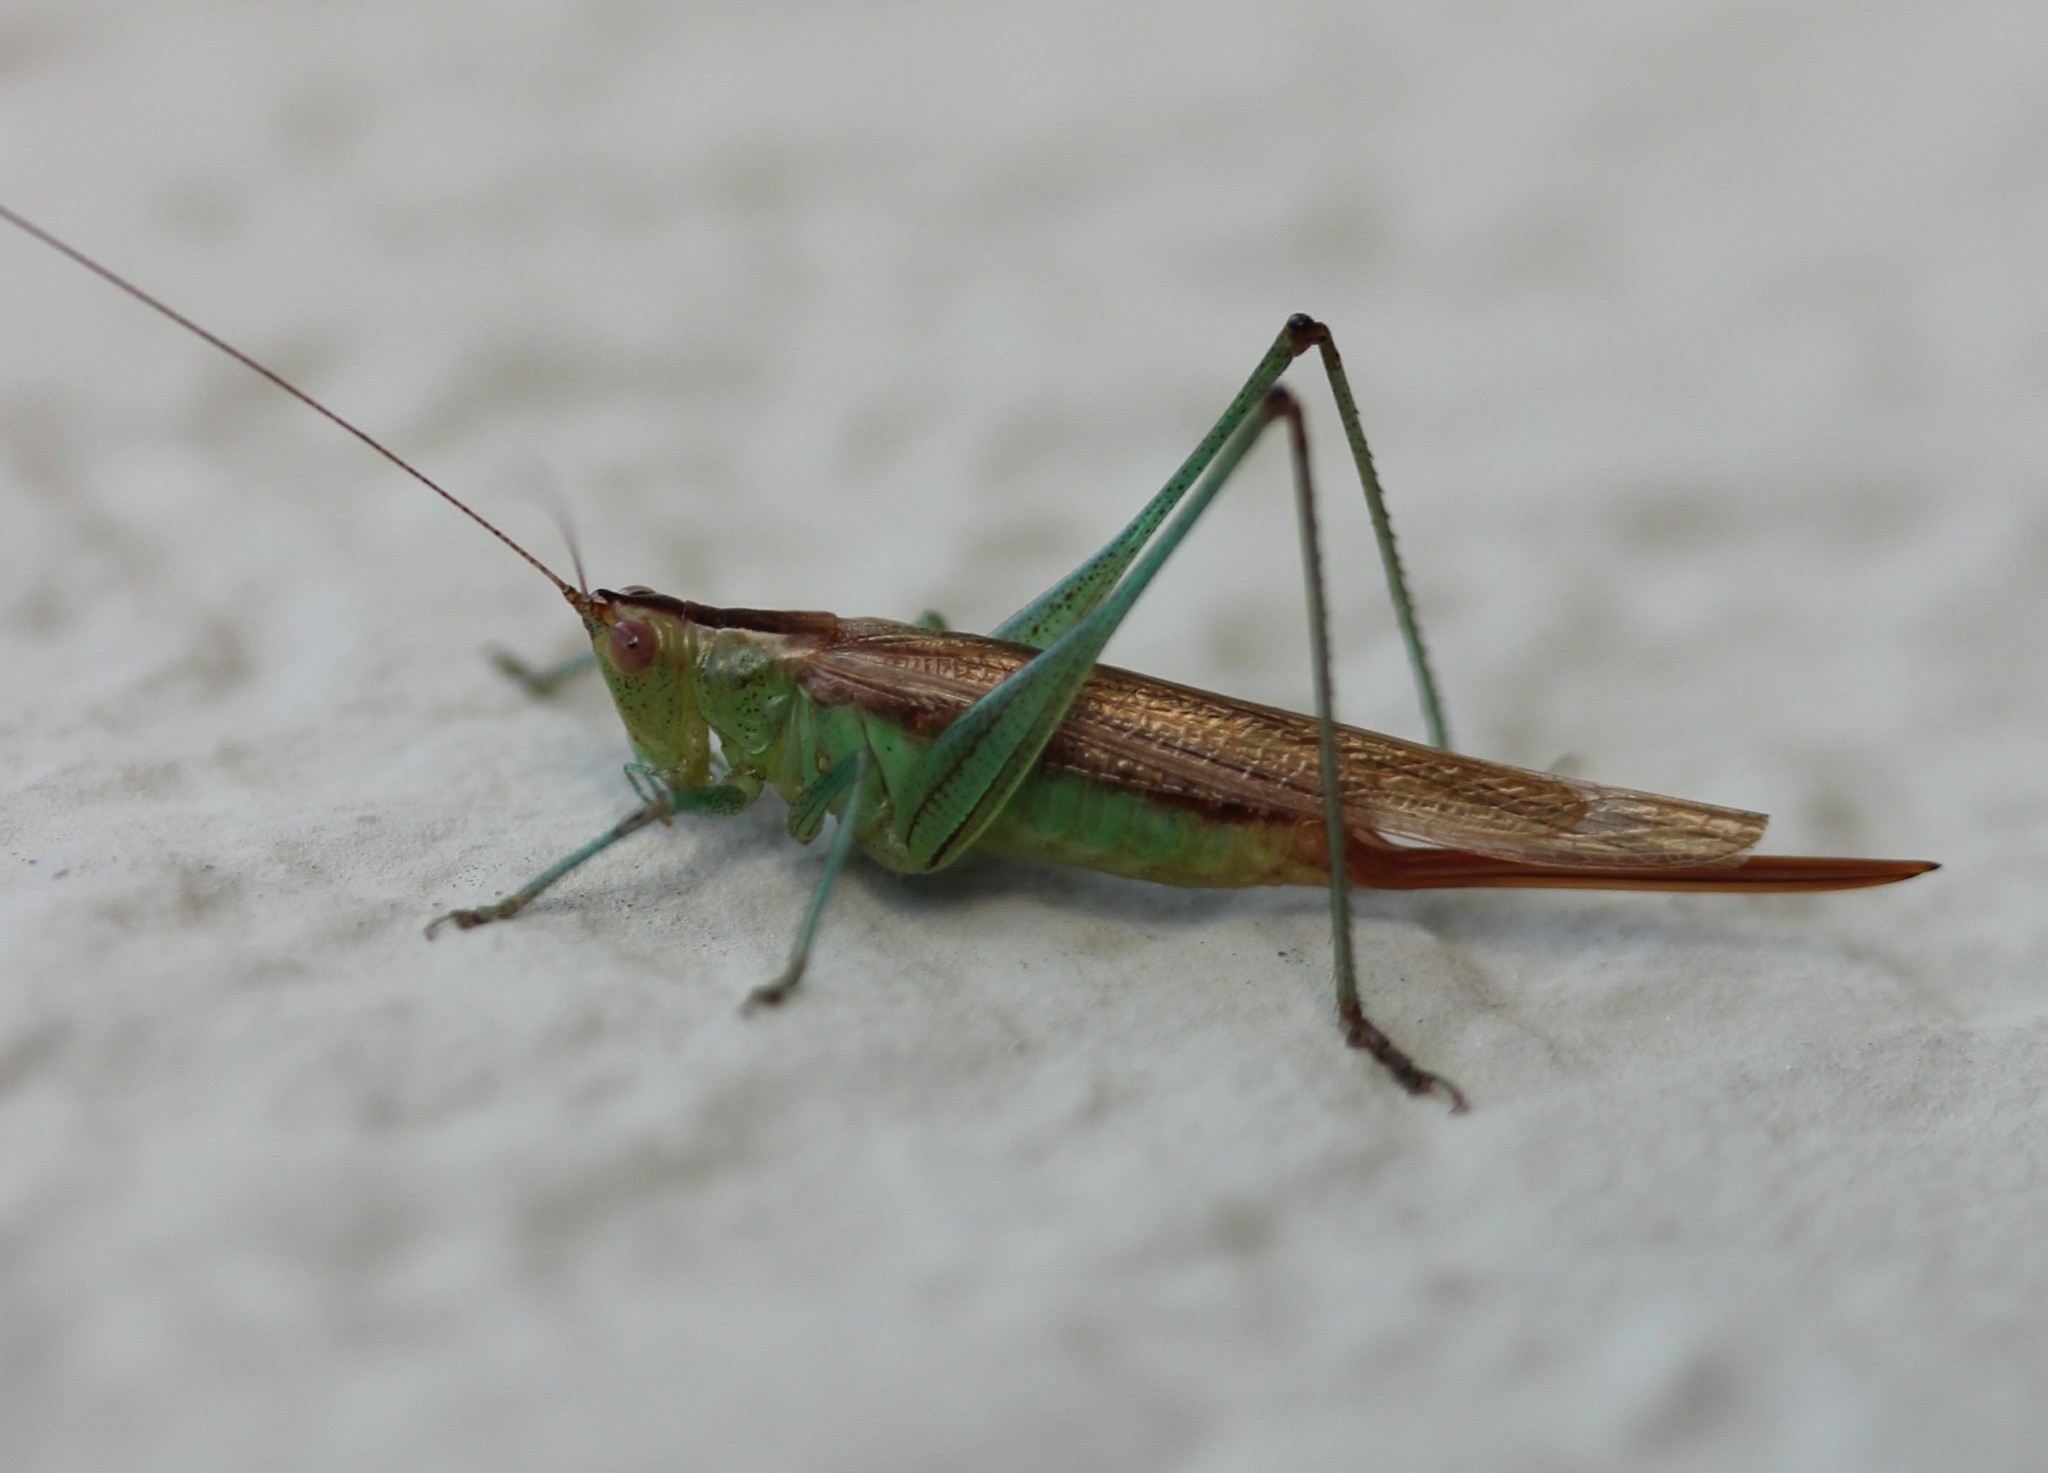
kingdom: Animalia
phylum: Arthropoda
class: Insecta
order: Orthoptera
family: Tettigoniidae
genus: Conocephalus
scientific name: Conocephalus brevipennis
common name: Short-winged meadow katydid
